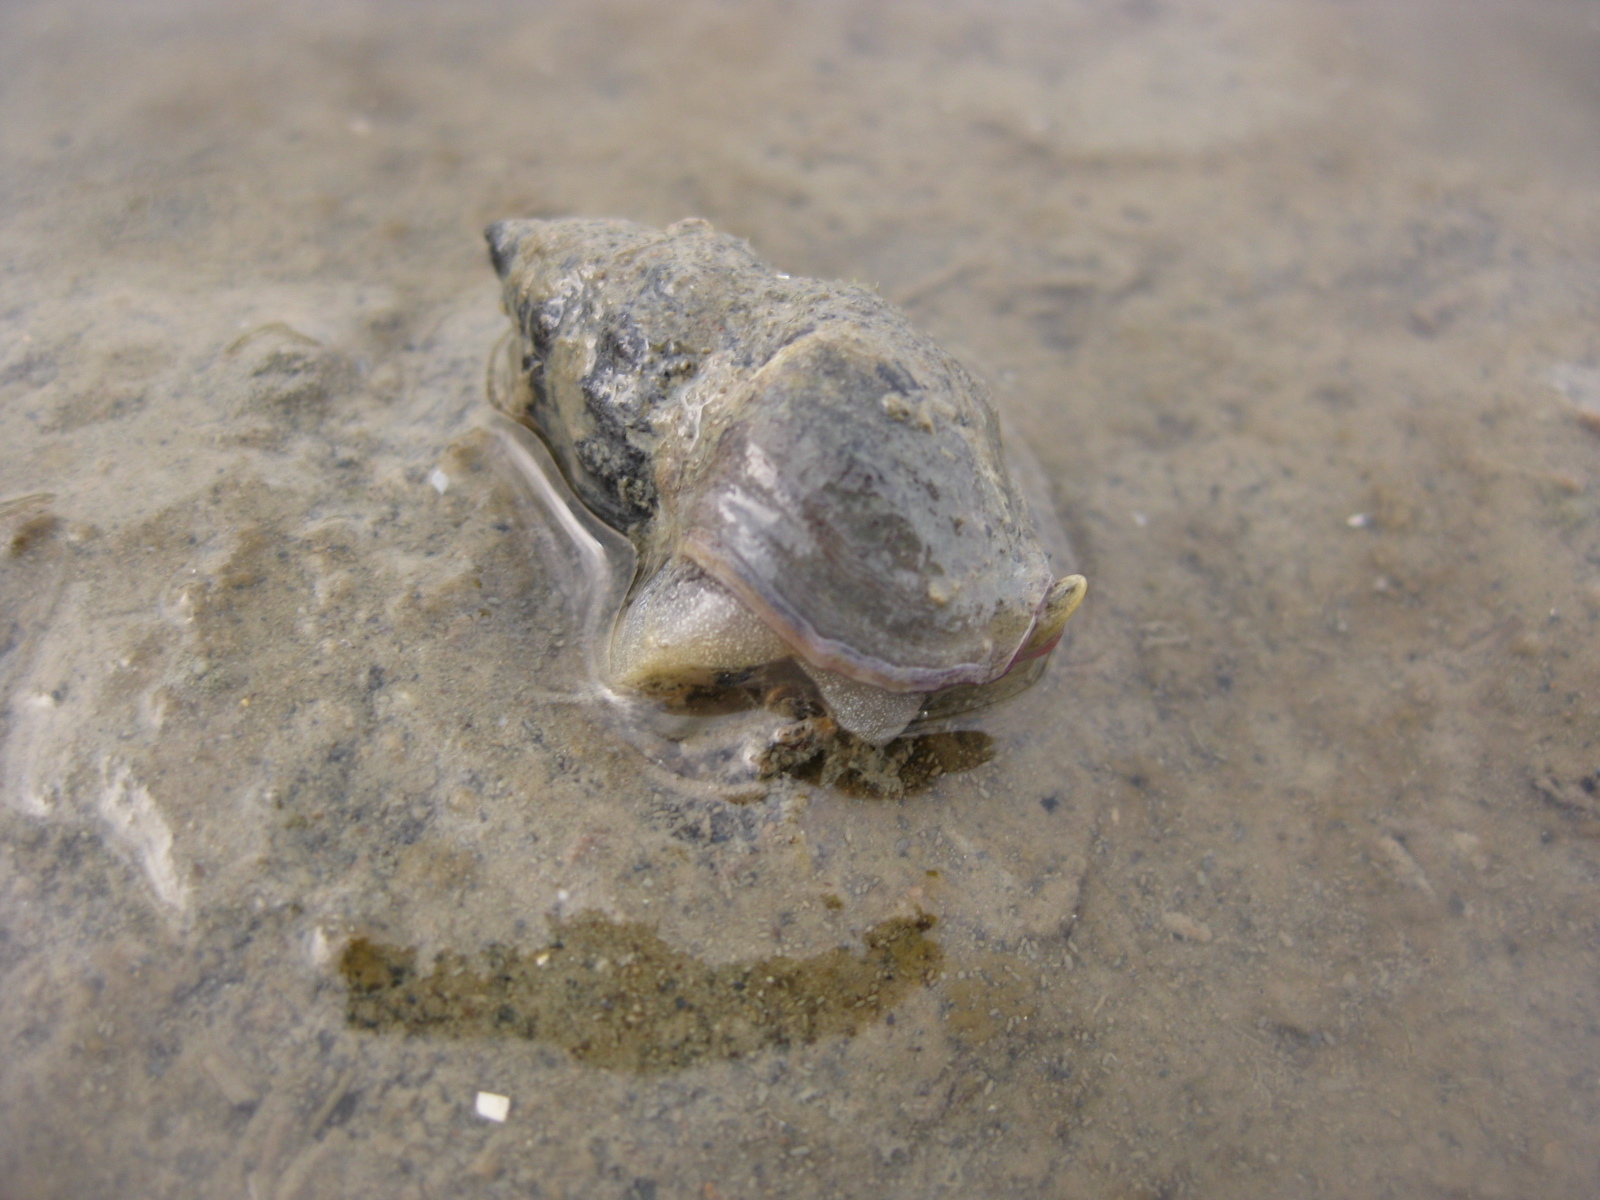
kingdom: Animalia
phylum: Mollusca
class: Gastropoda
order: Neogastropoda
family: Cominellidae
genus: Cominella
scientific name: Cominella glandiformis
